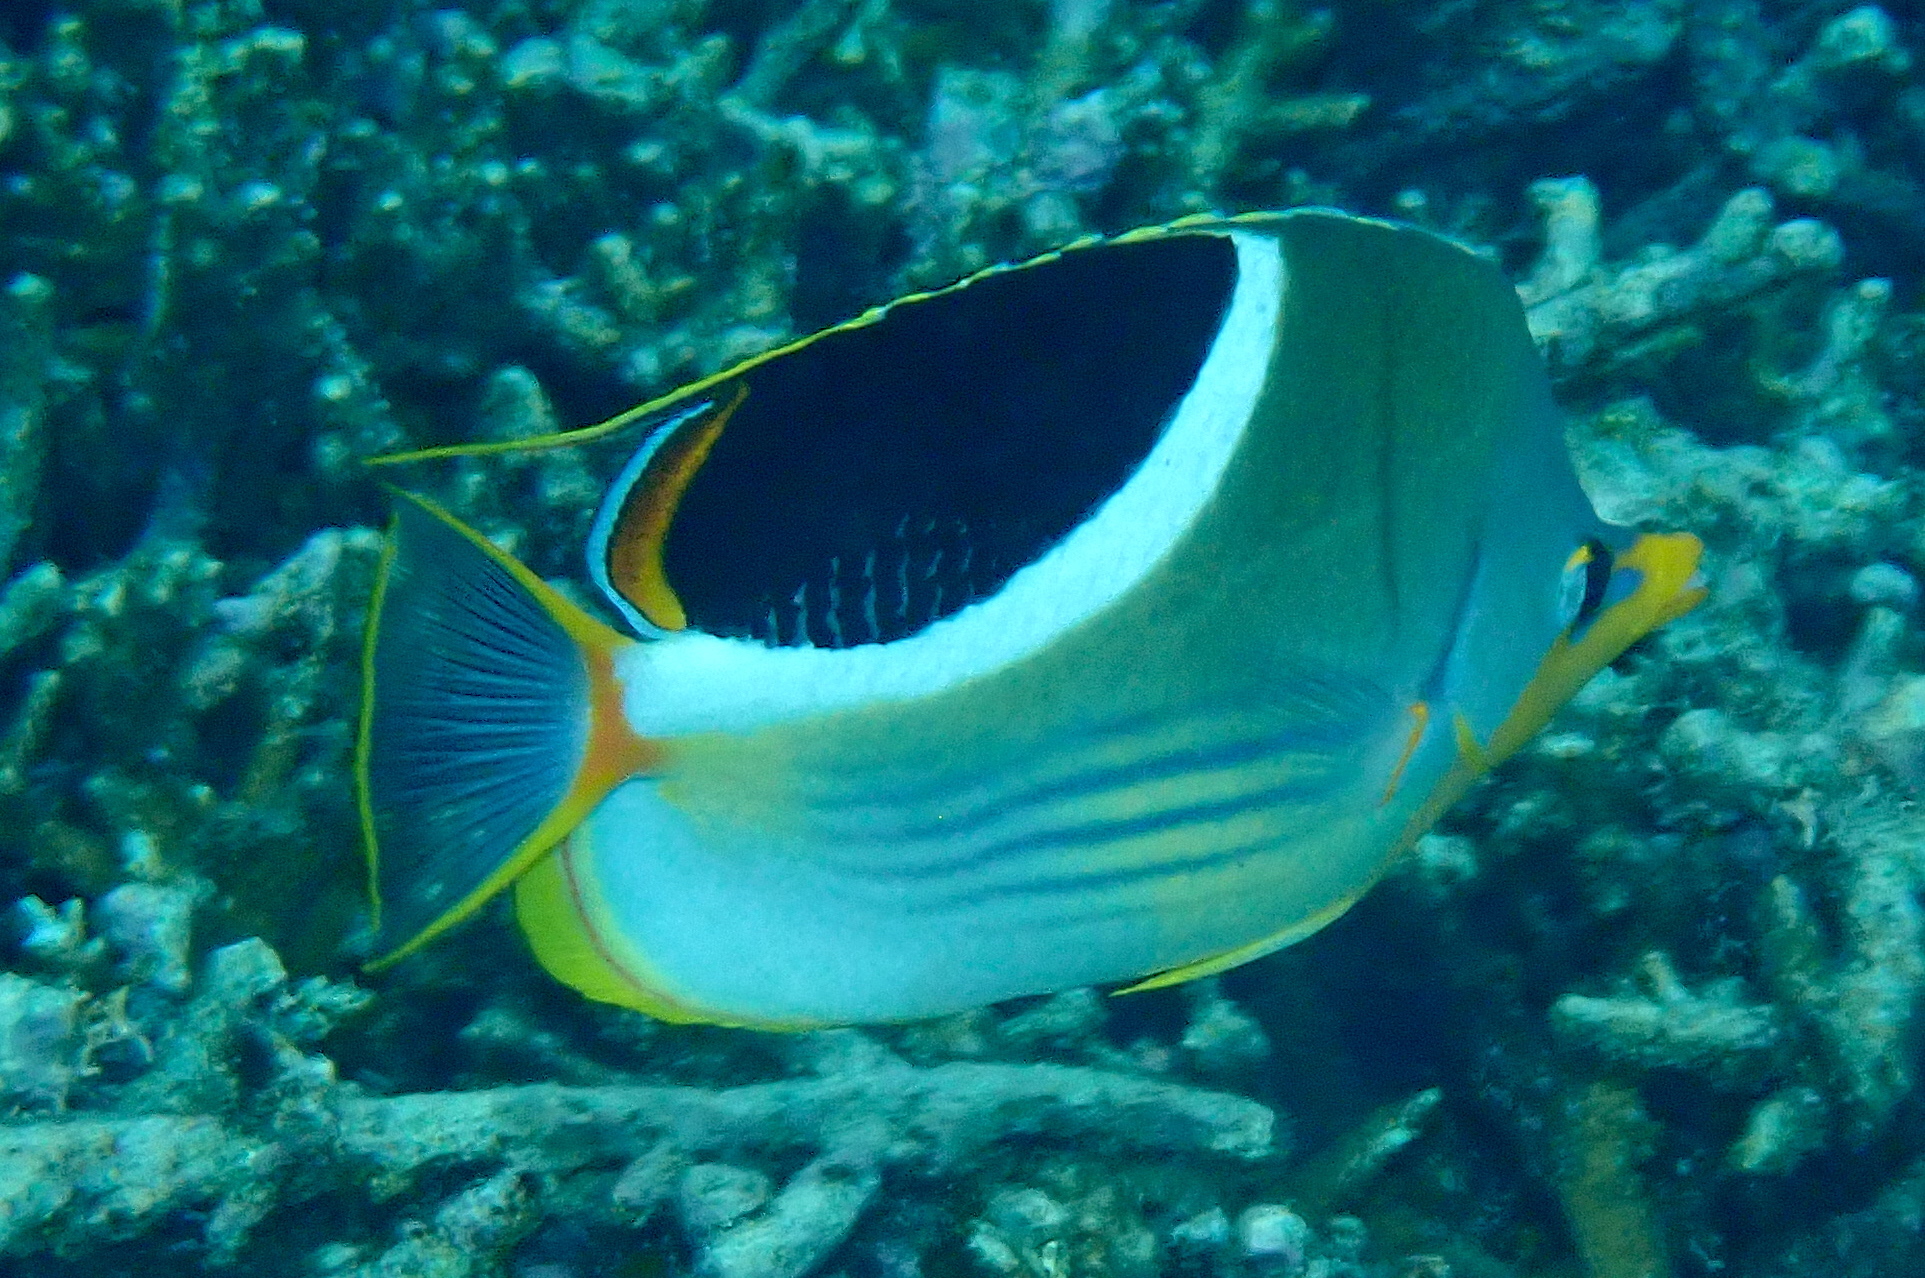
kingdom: Animalia
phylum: Chordata
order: Perciformes
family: Chaetodontidae
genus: Chaetodon
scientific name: Chaetodon ephippium
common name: Saddled butterflyfish
